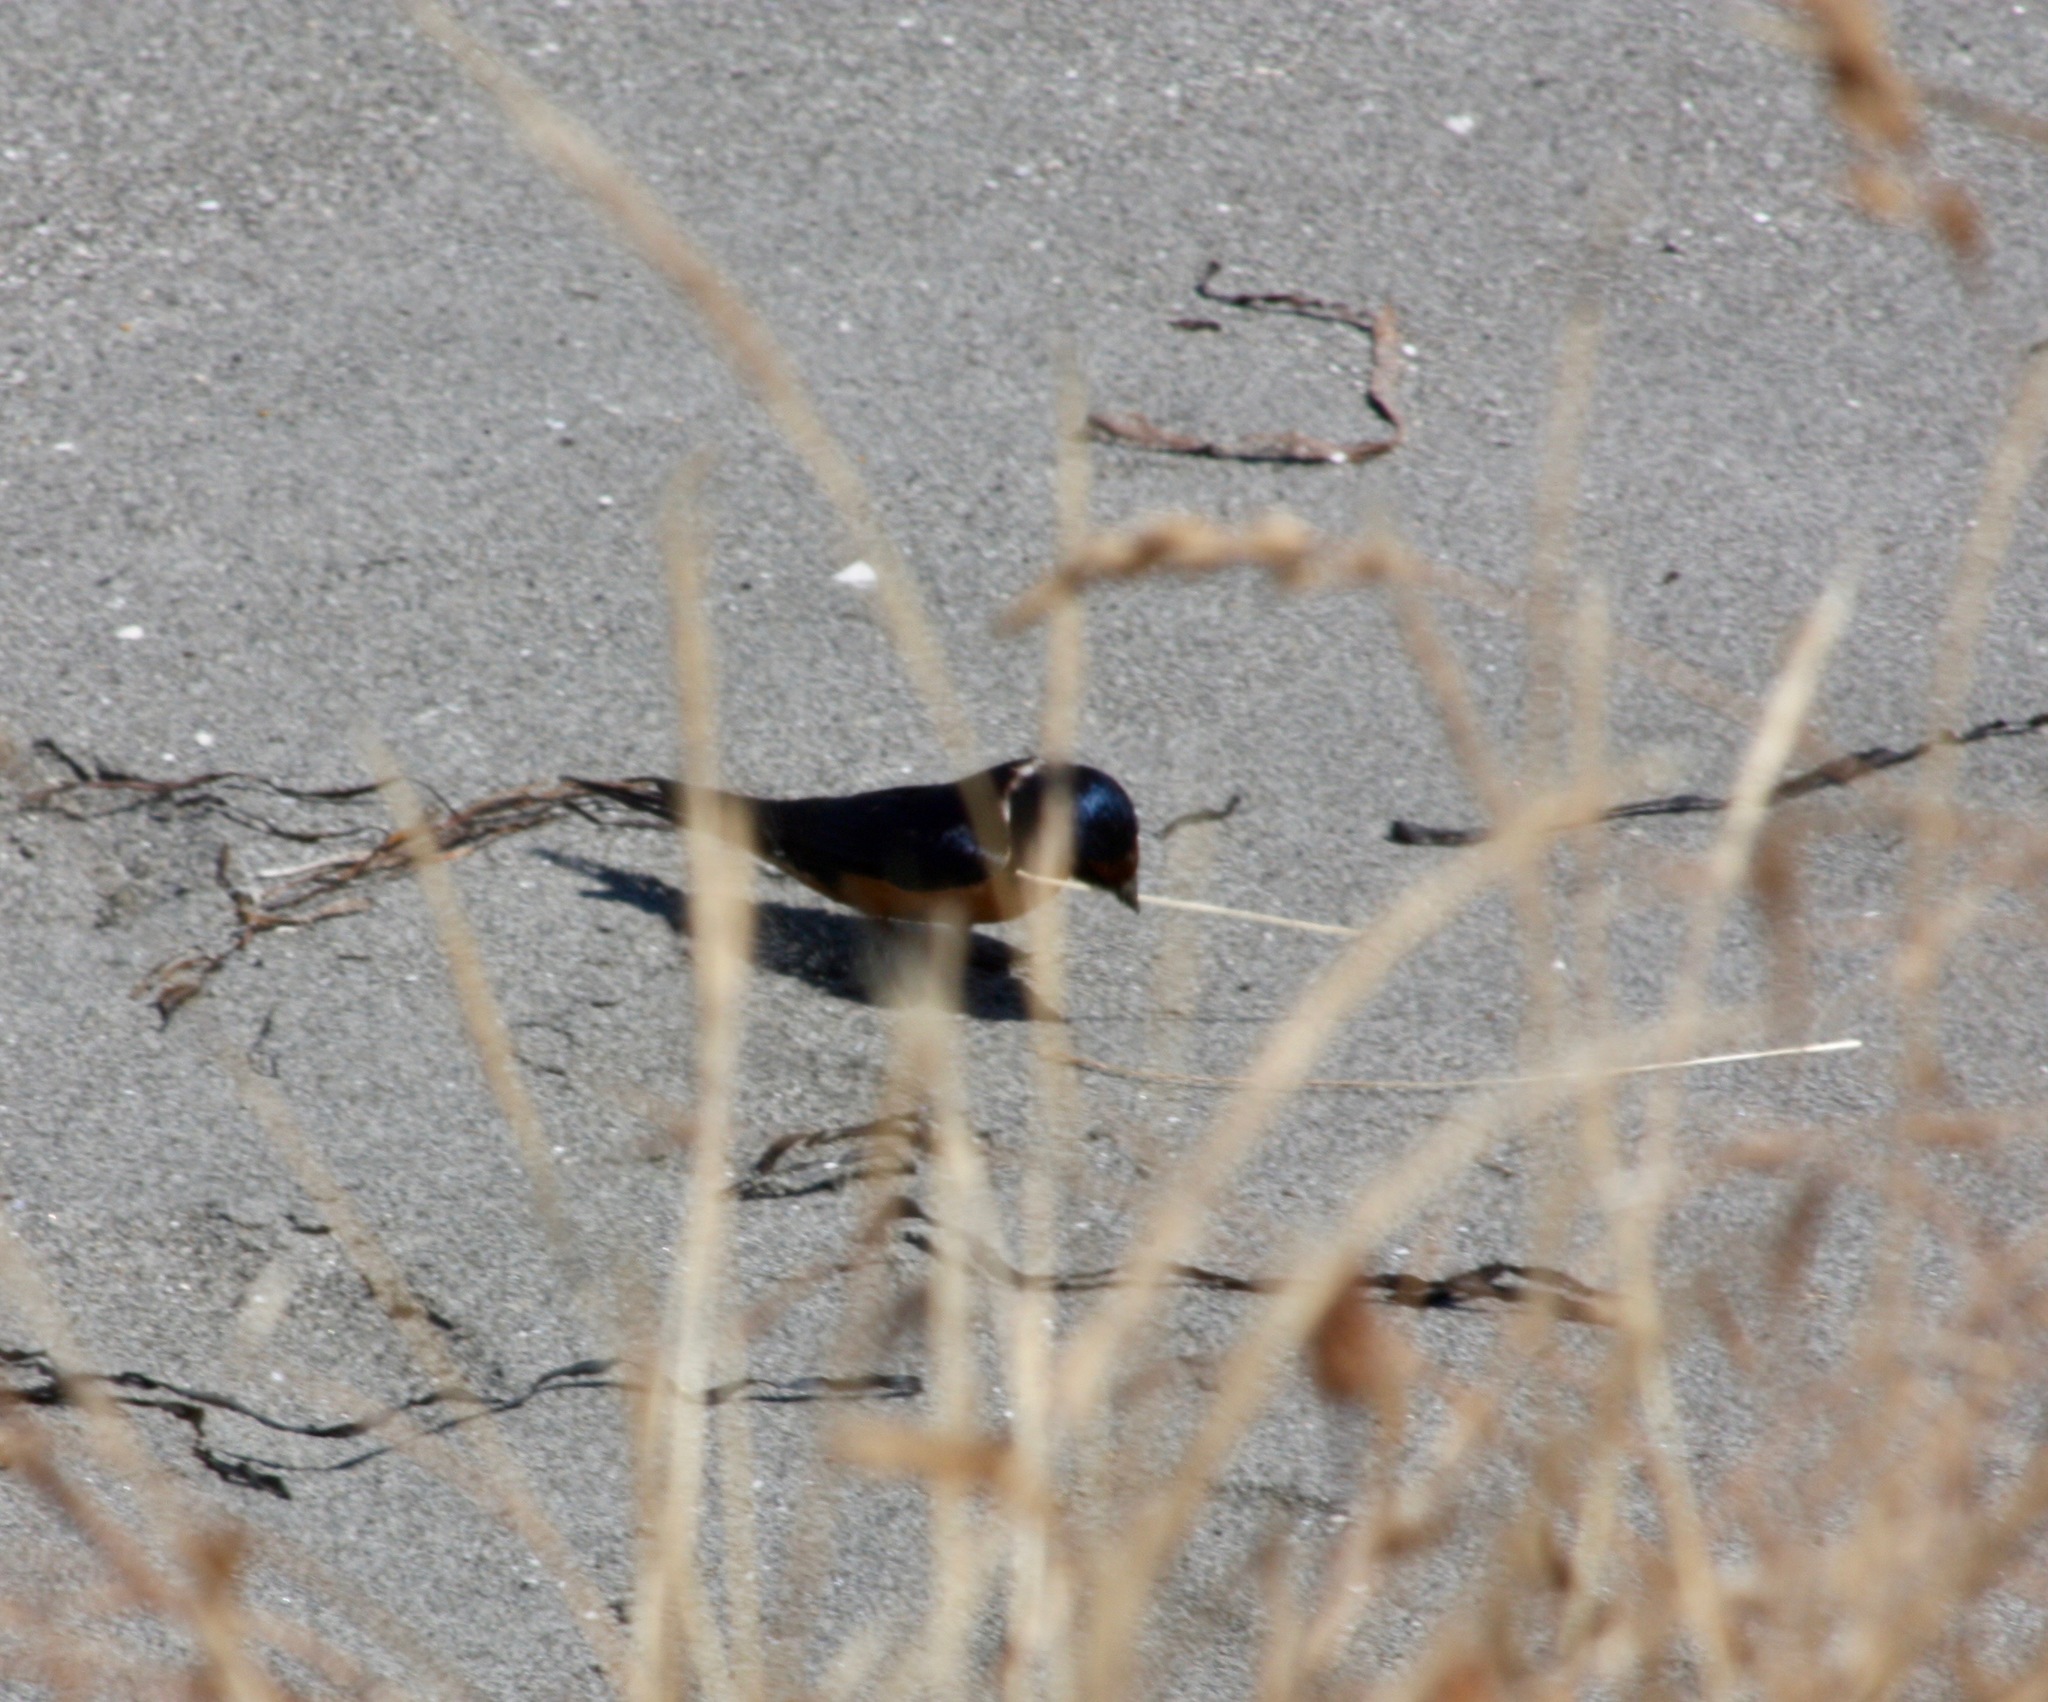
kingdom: Animalia
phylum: Chordata
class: Aves
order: Passeriformes
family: Hirundinidae
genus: Hirundo
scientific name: Hirundo rustica
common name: Barn swallow
